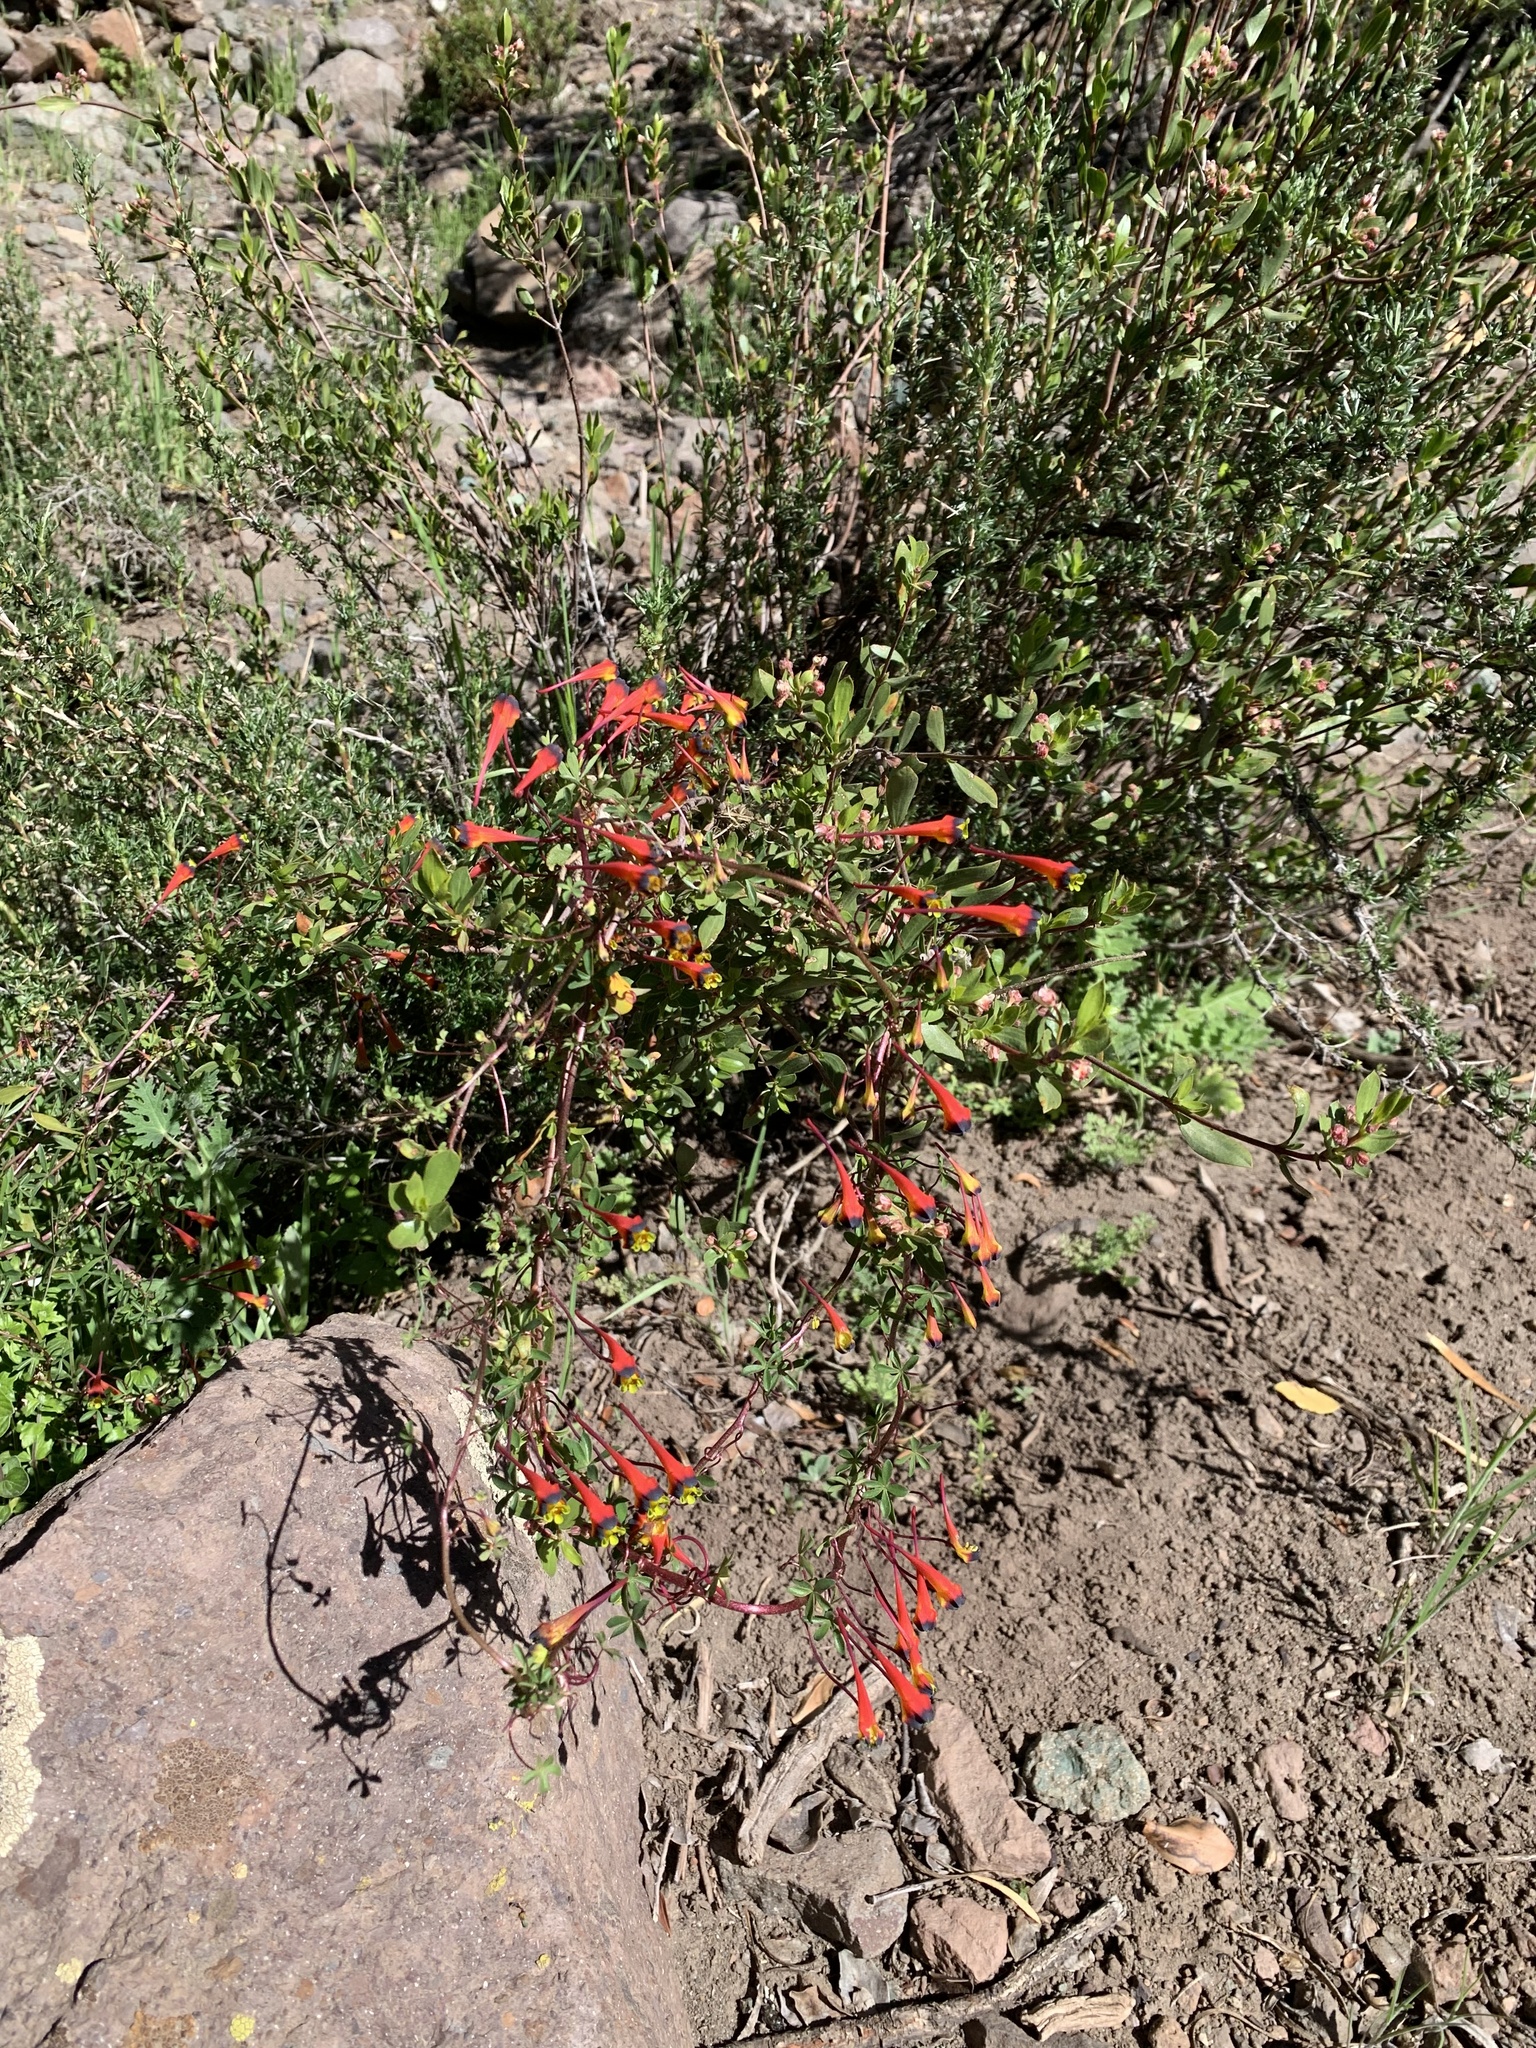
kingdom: Plantae
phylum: Tracheophyta
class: Magnoliopsida
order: Brassicales
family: Tropaeolaceae
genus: Tropaeolum
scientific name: Tropaeolum tricolor
